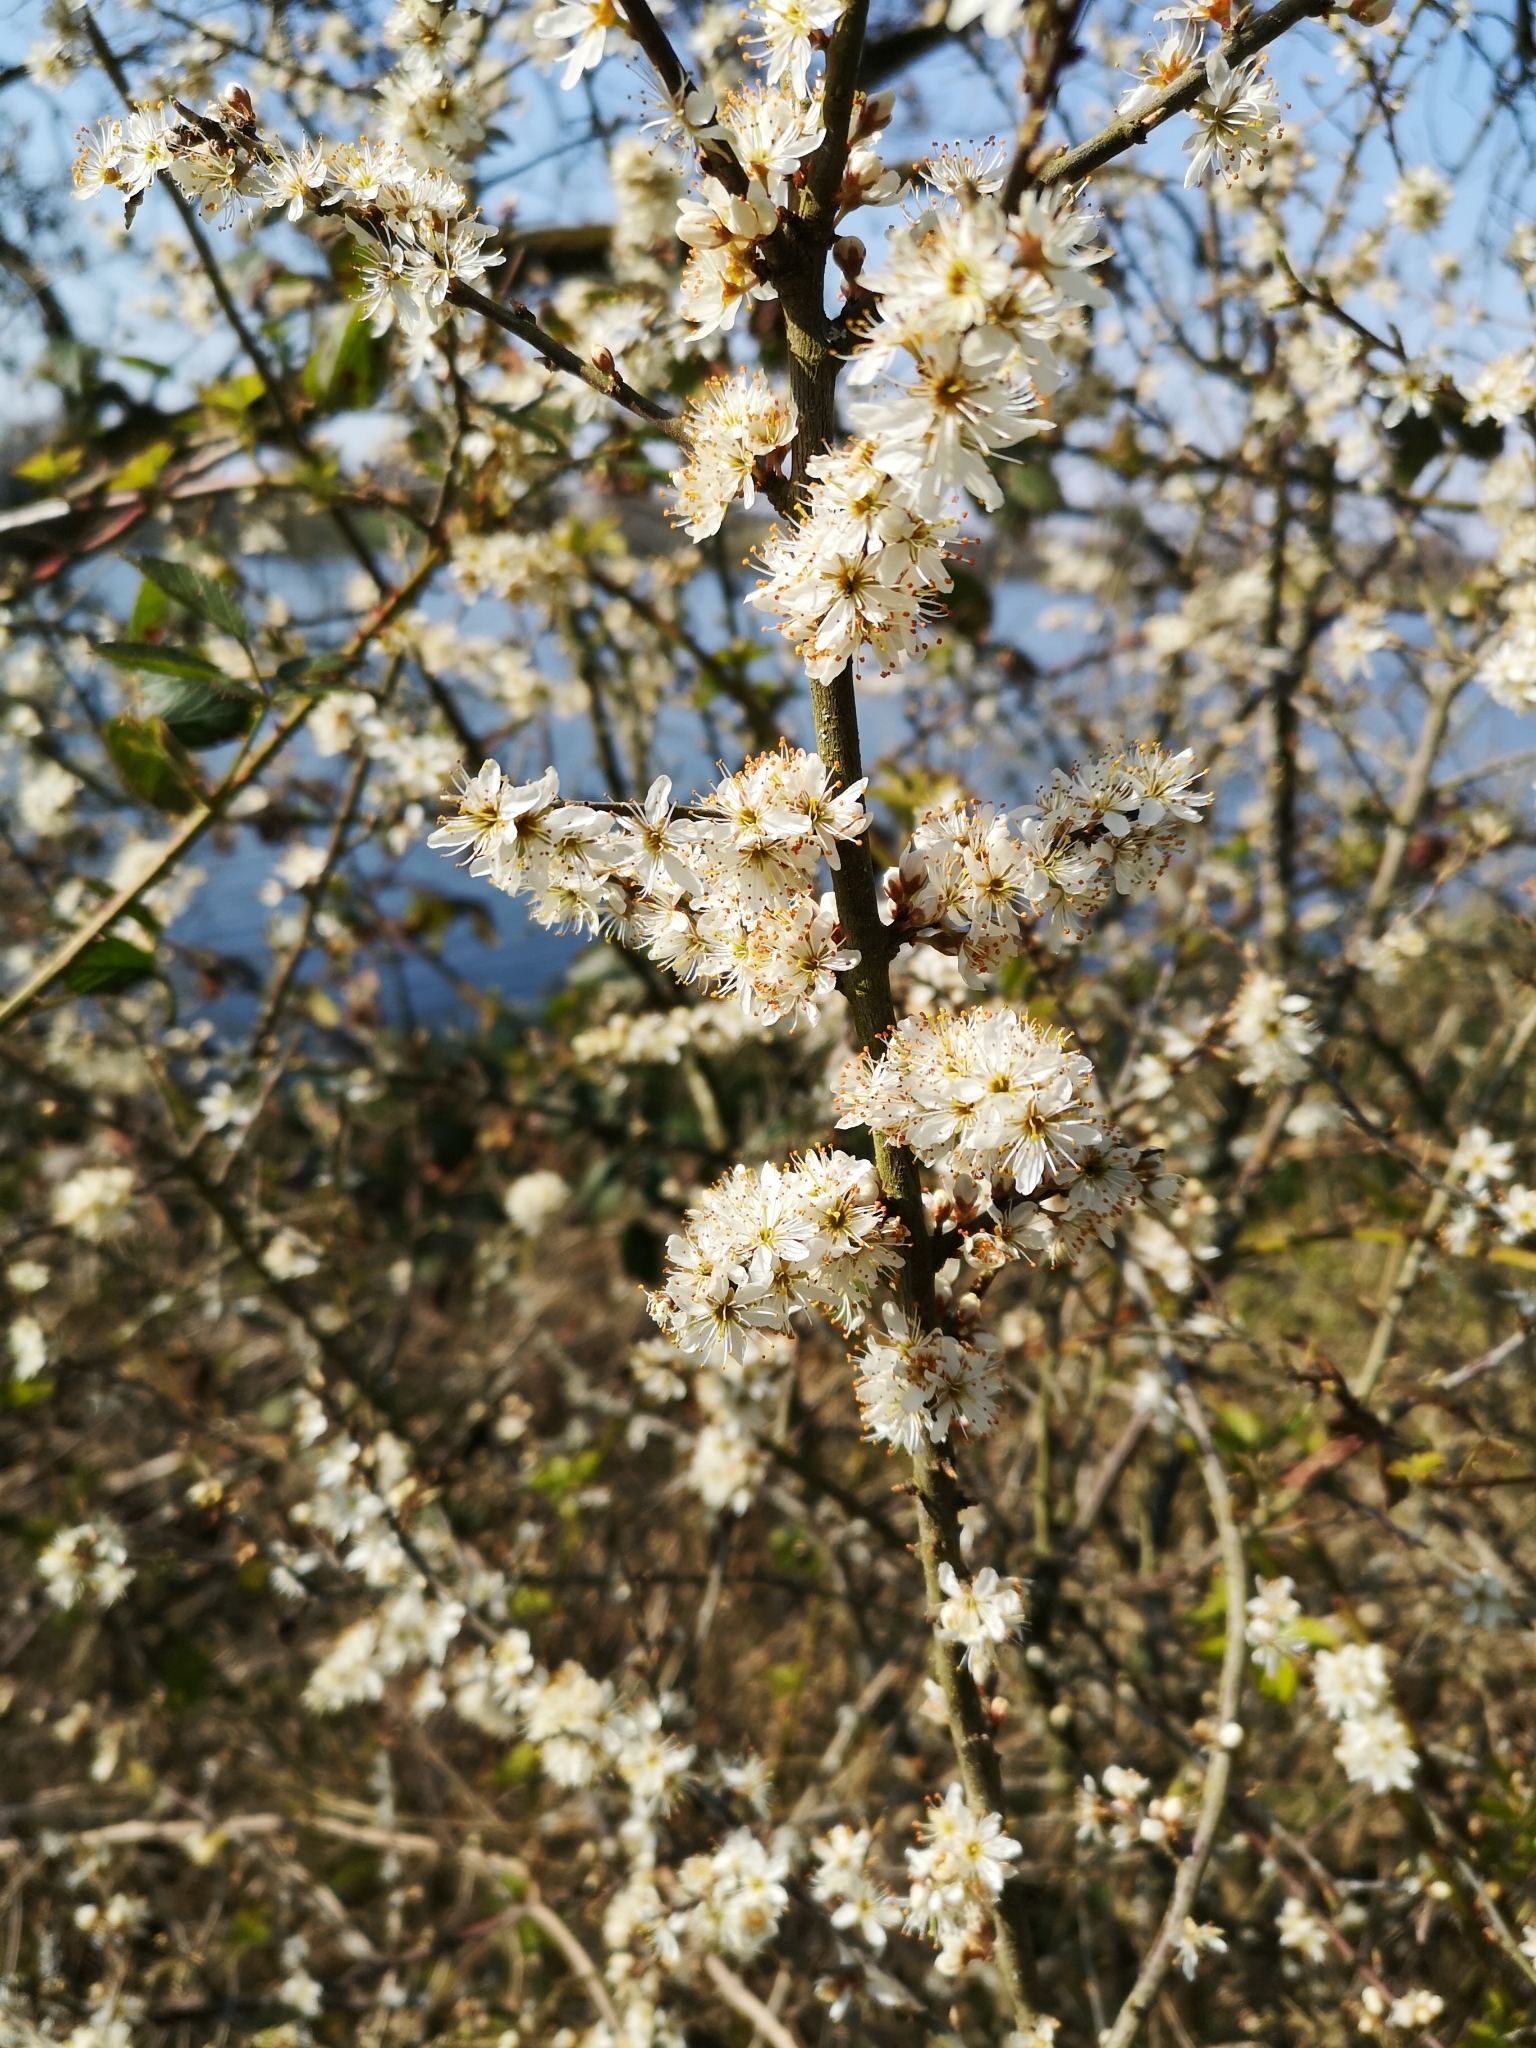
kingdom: Plantae
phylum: Tracheophyta
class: Magnoliopsida
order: Rosales
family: Rosaceae
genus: Prunus
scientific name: Prunus spinosa
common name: Blackthorn
